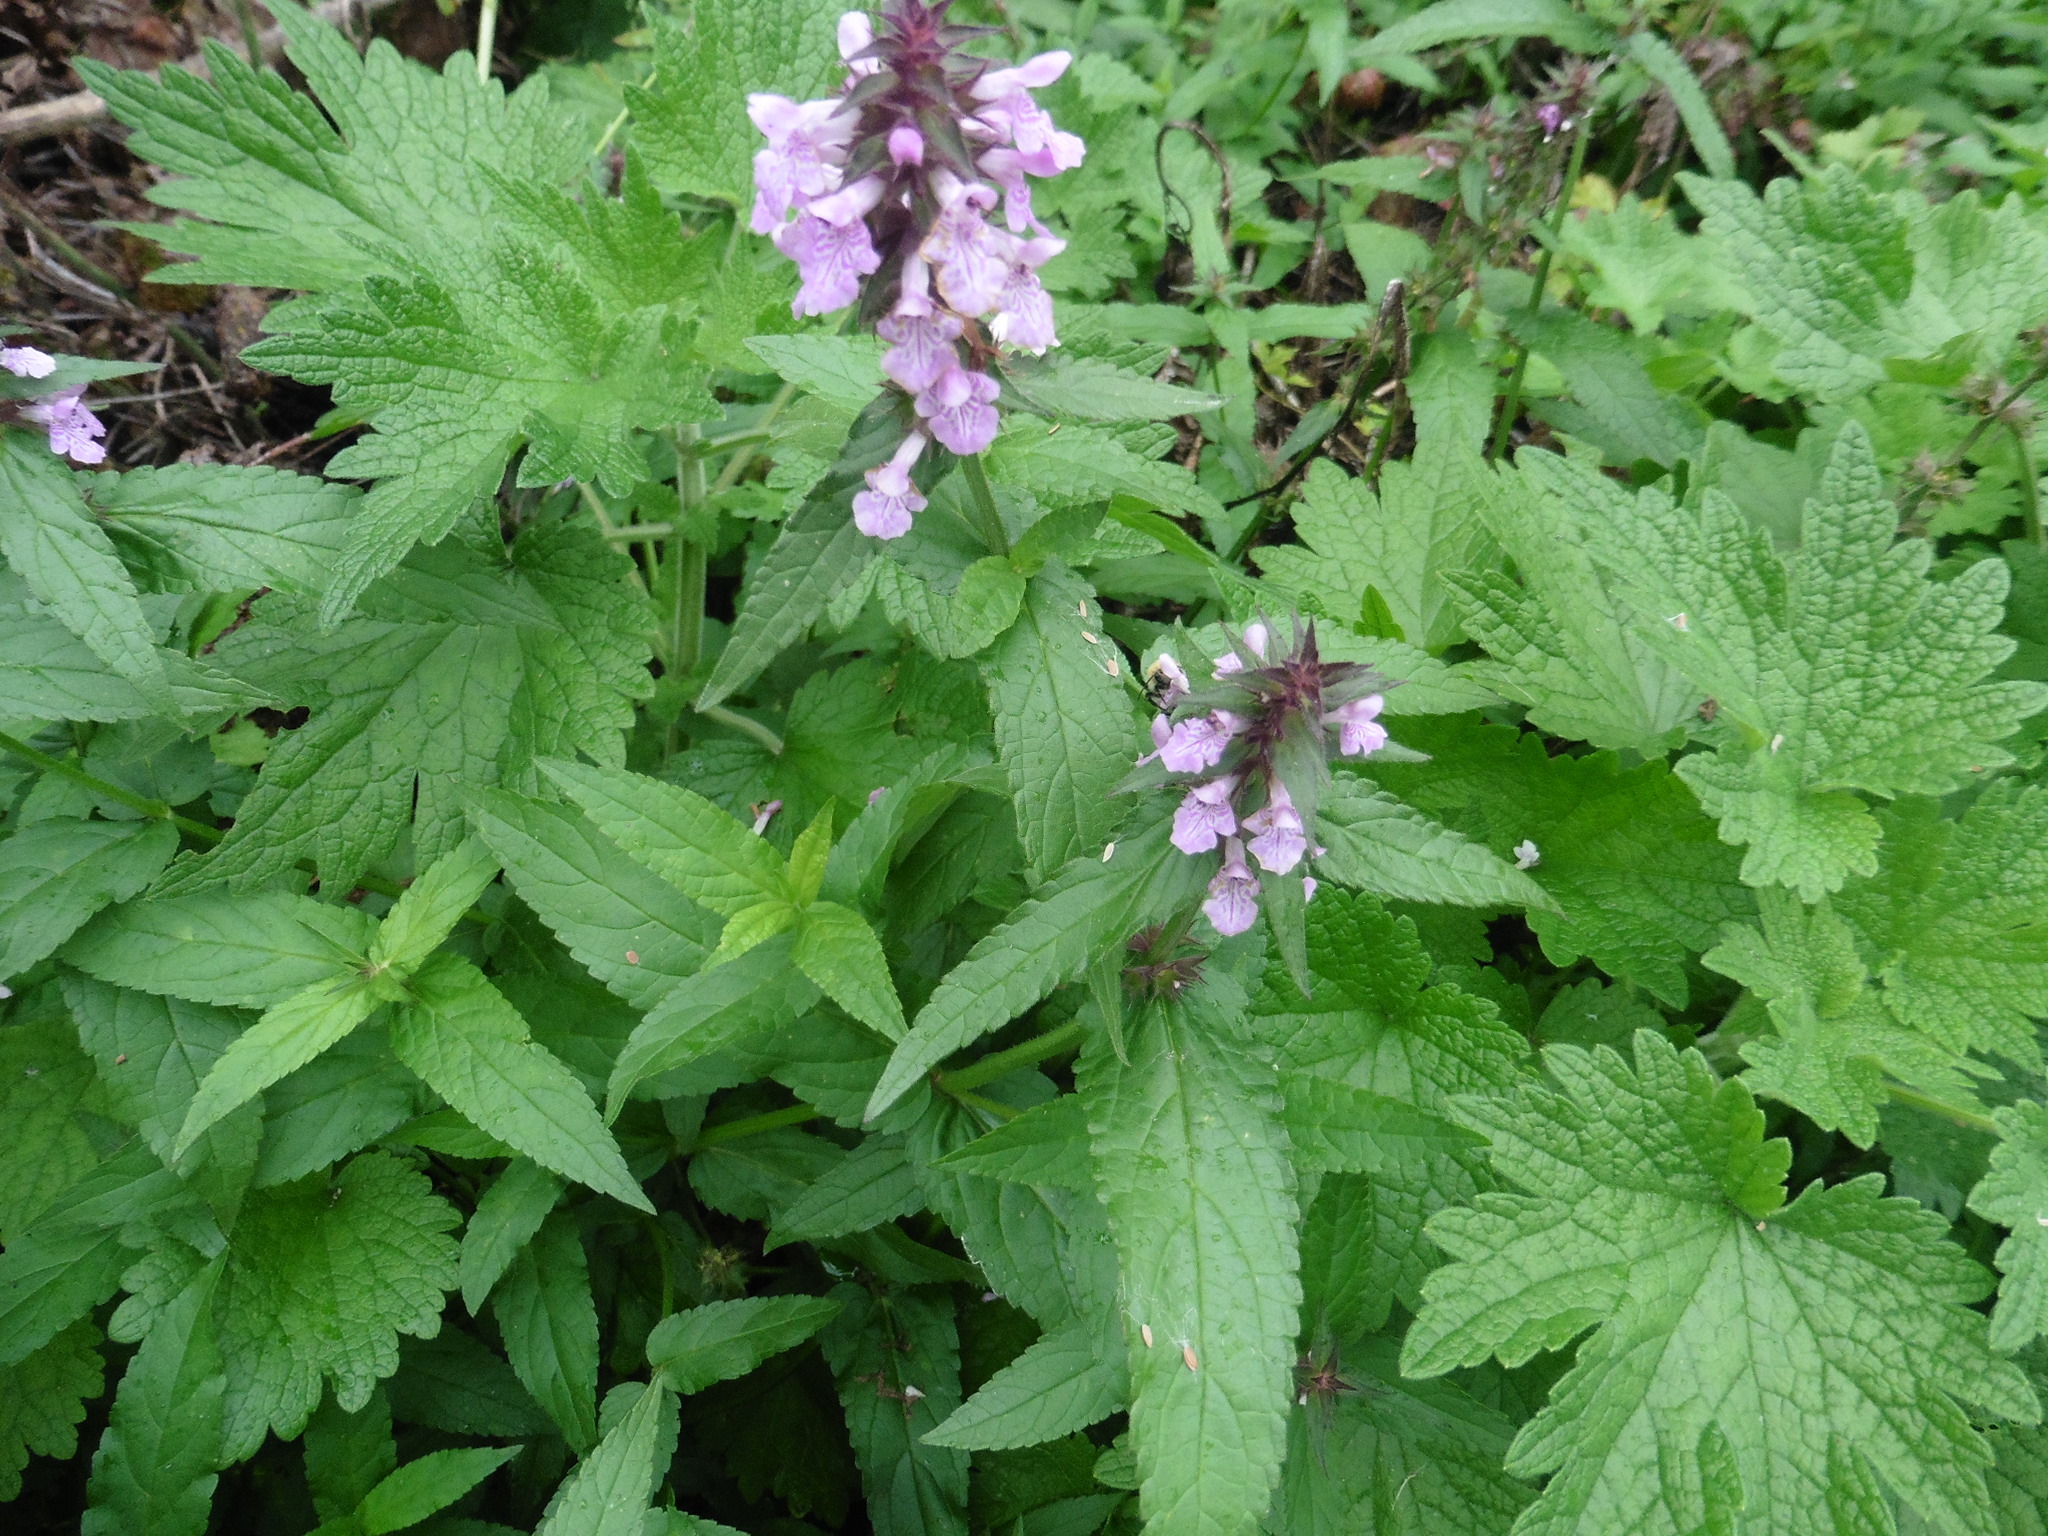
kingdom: Plantae
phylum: Tracheophyta
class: Magnoliopsida
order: Lamiales
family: Lamiaceae
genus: Stachys
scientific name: Stachys palustris
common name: Marsh woundwort
